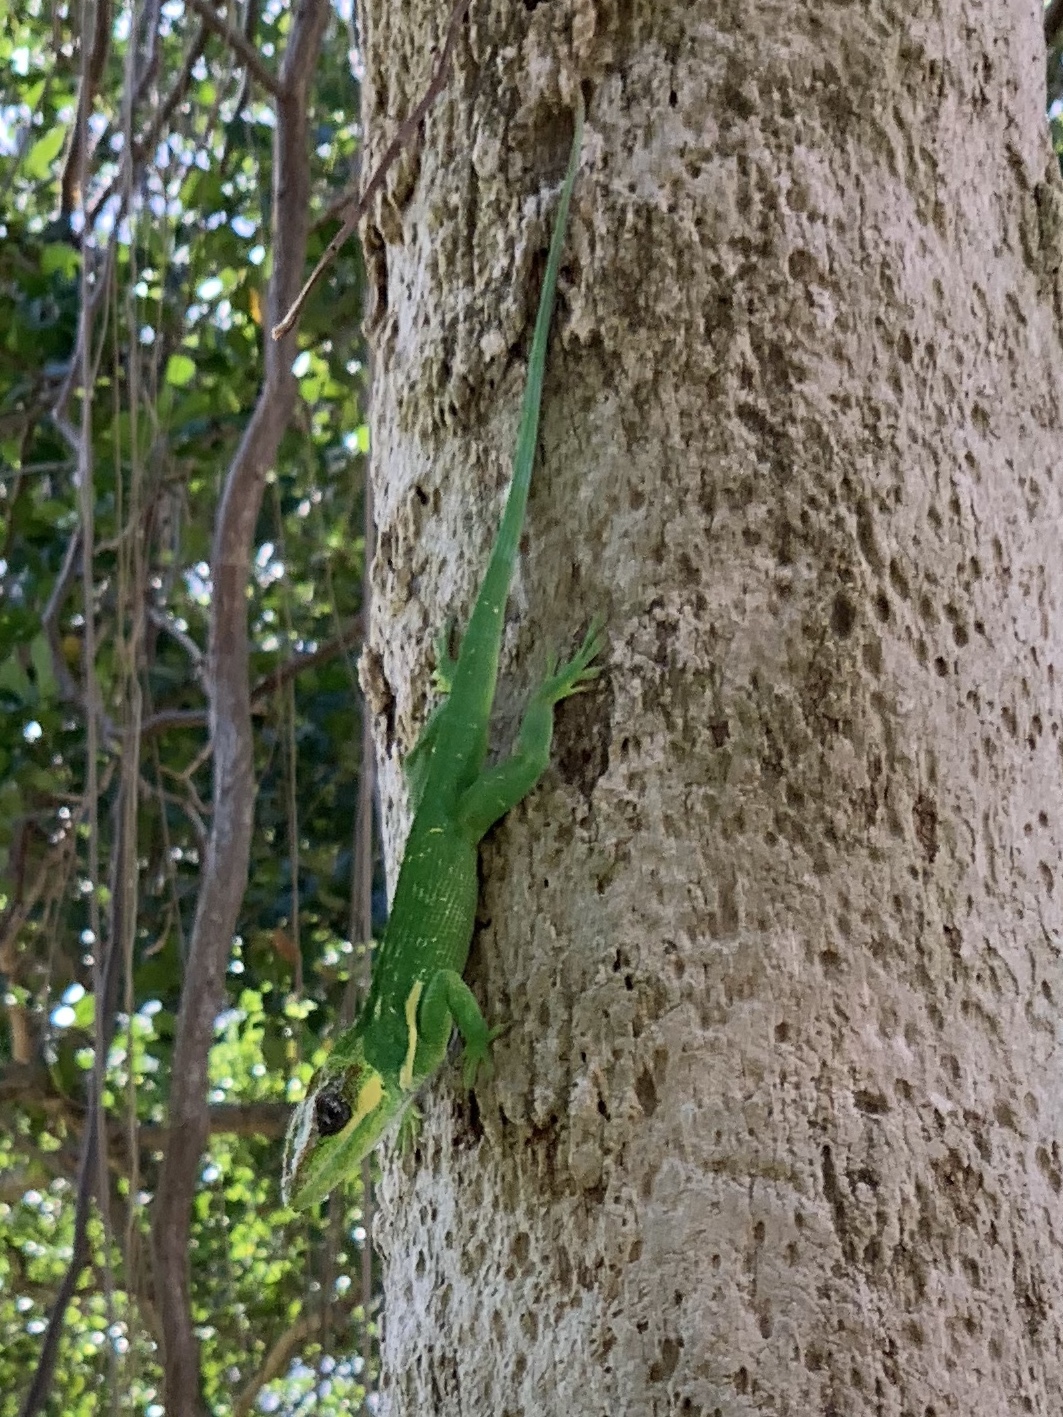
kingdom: Animalia
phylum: Chordata
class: Squamata
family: Dactyloidae
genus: Anolis
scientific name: Anolis equestris
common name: Knight anole
